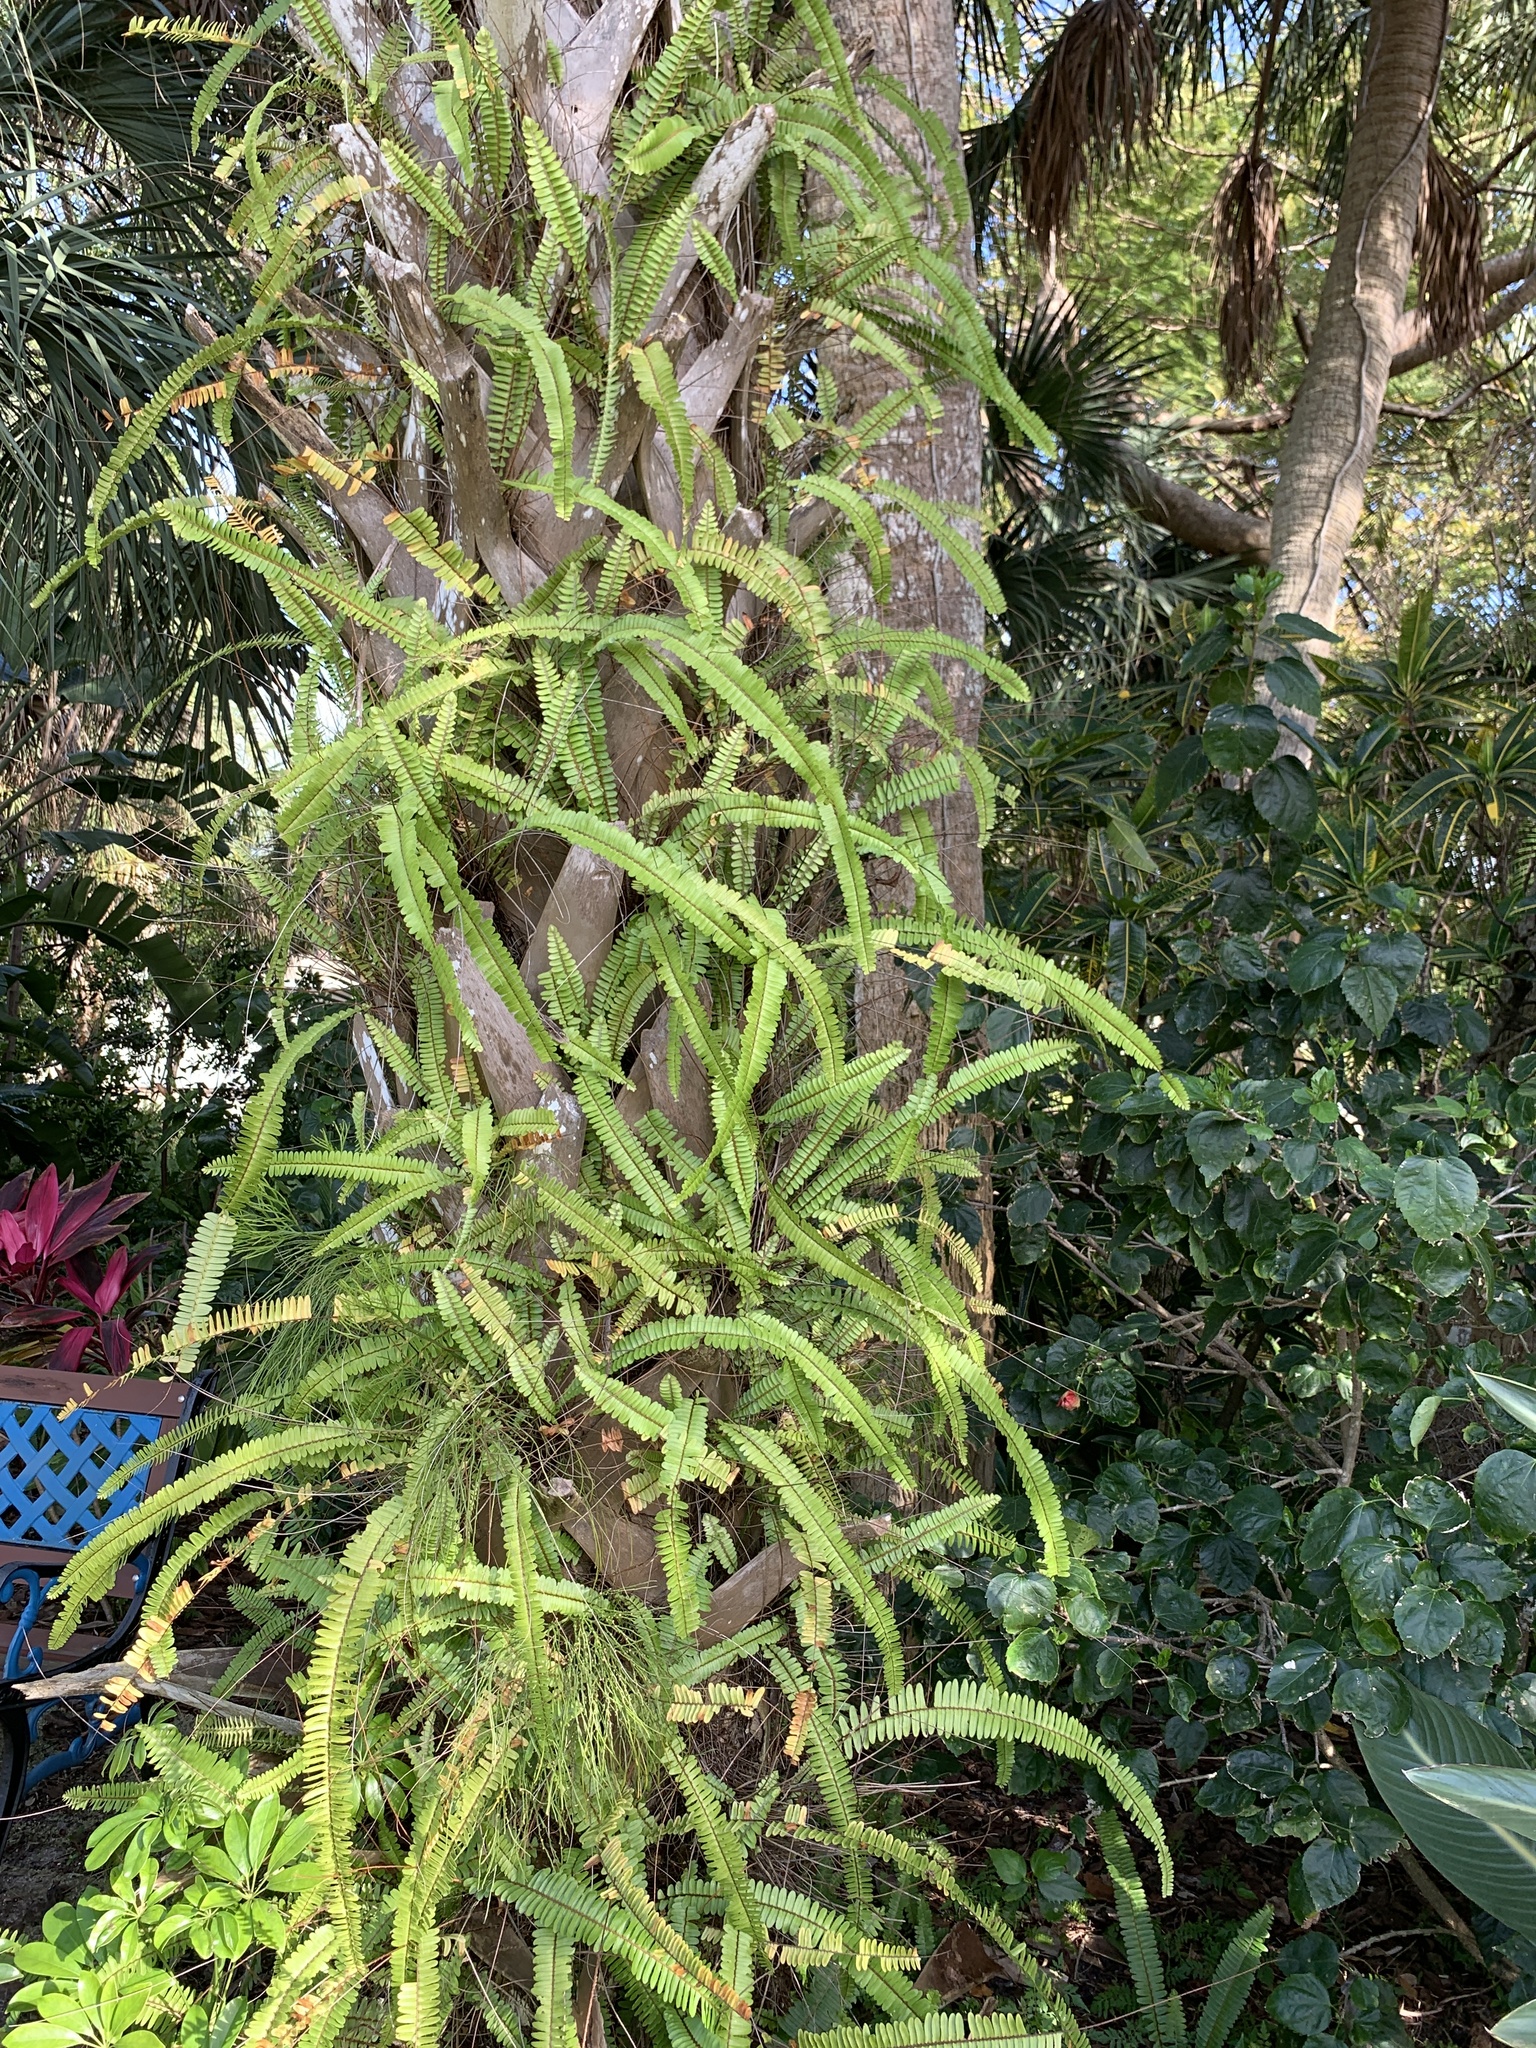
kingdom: Plantae
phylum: Tracheophyta
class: Polypodiopsida
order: Polypodiales
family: Nephrolepidaceae
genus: Nephrolepis
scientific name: Nephrolepis cordifolia
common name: Narrow swordfern
